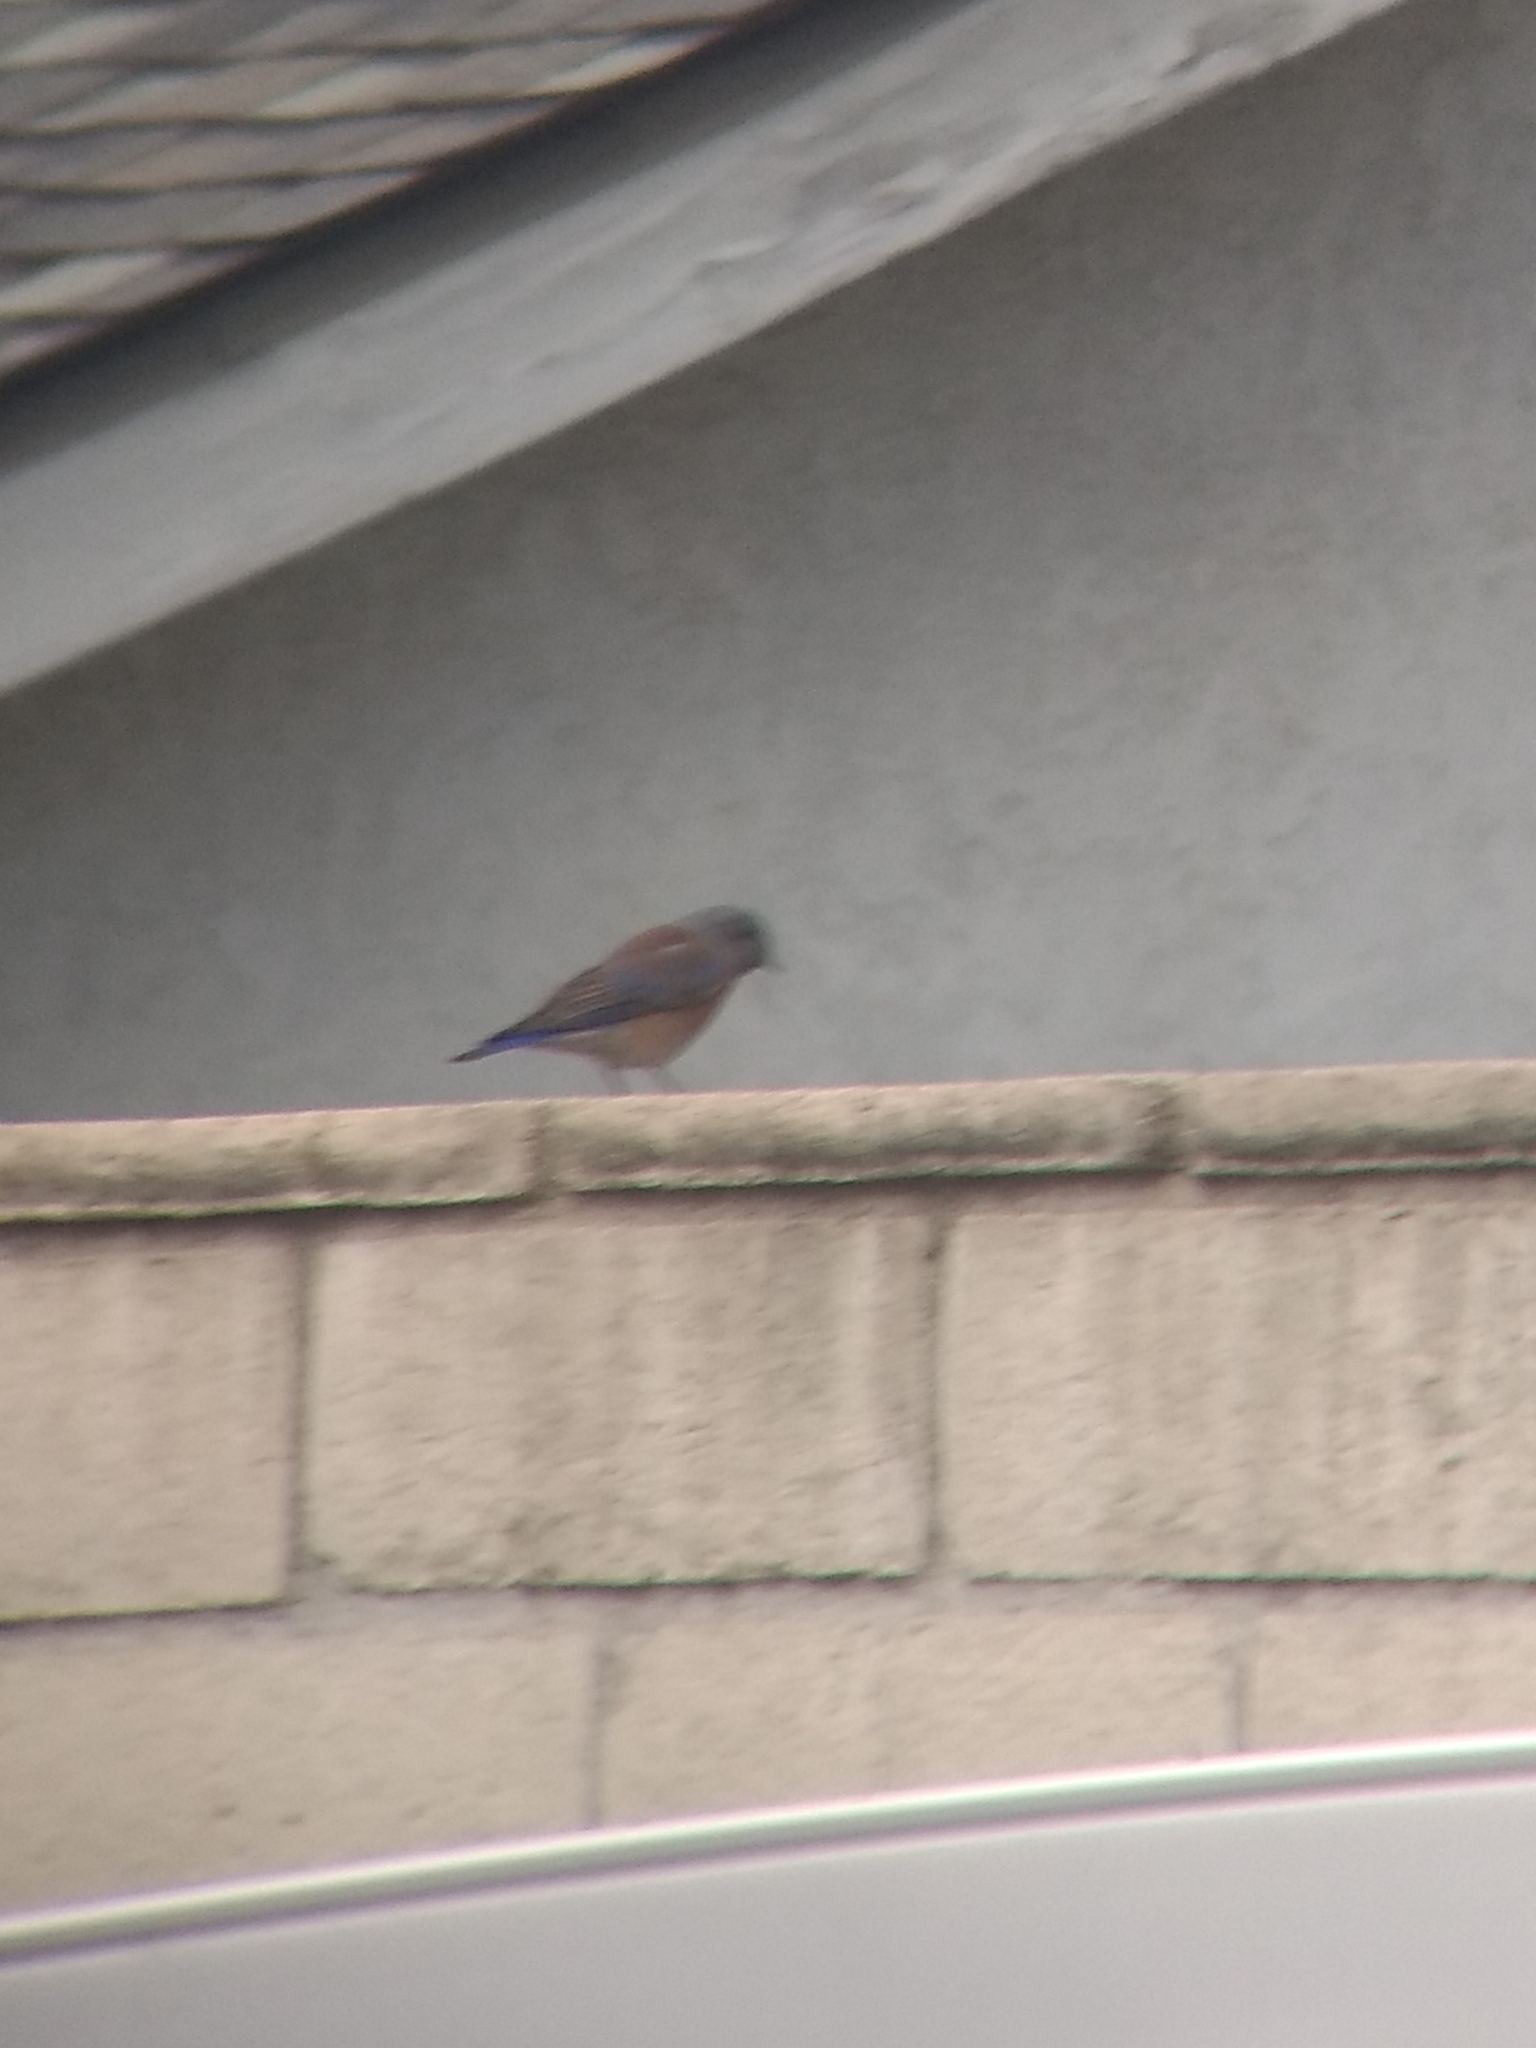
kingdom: Animalia
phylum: Chordata
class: Aves
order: Passeriformes
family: Turdidae
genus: Sialia
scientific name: Sialia mexicana
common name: Western bluebird
